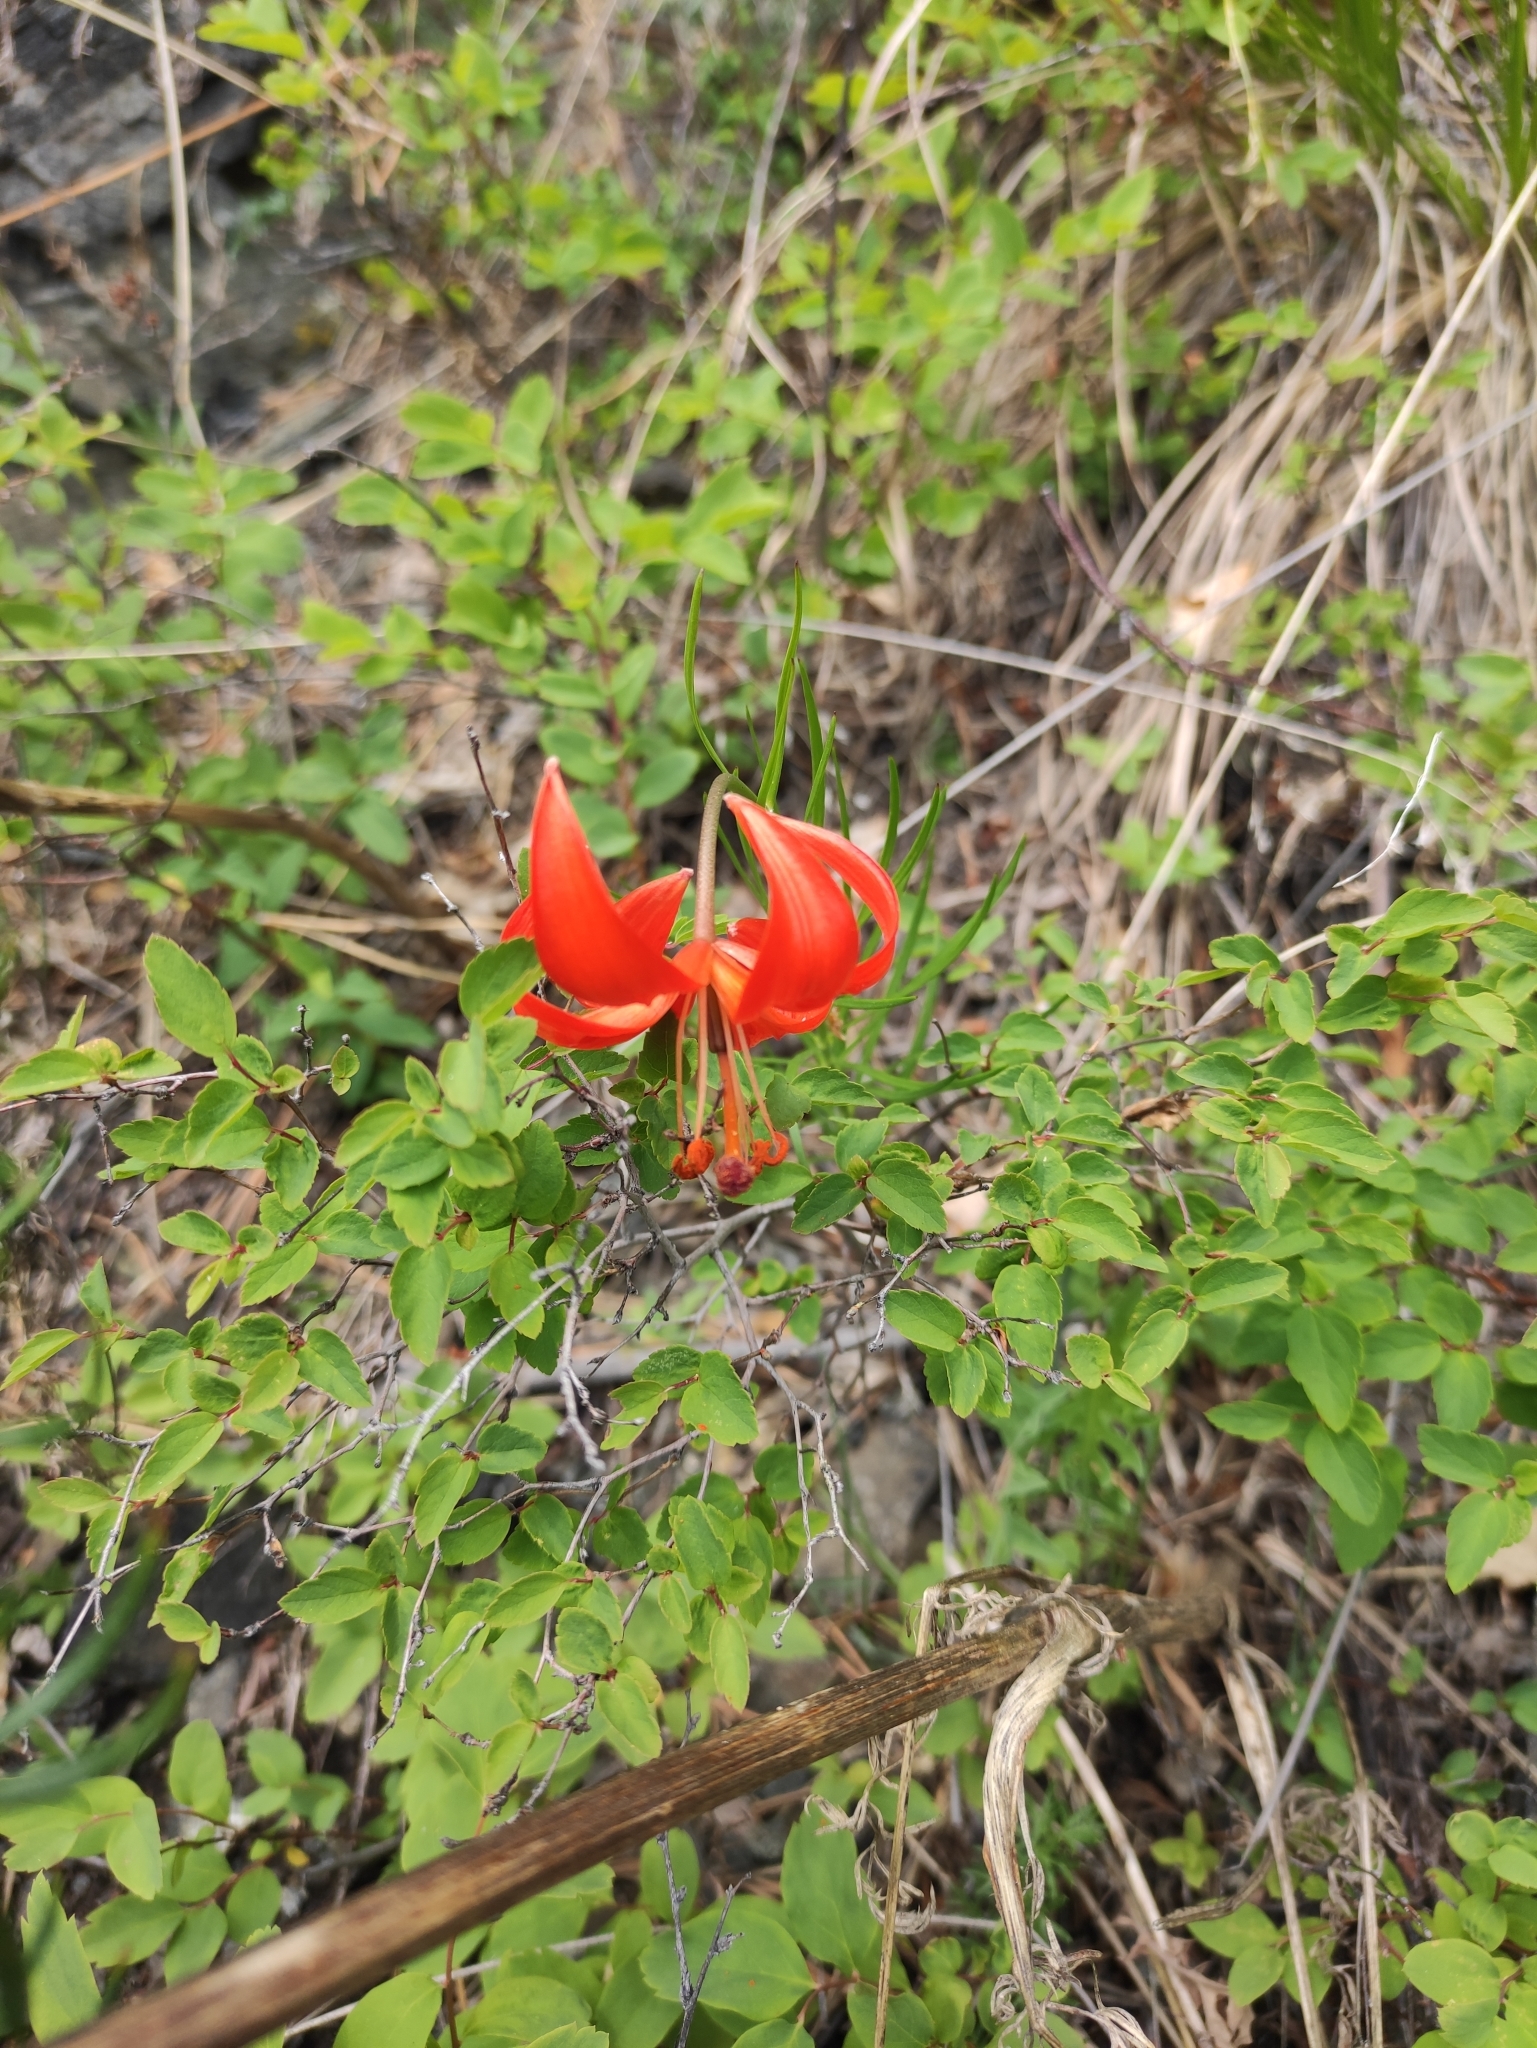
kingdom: Plantae
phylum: Tracheophyta
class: Liliopsida
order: Liliales
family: Liliaceae
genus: Lilium
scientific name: Lilium pumilum
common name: Coral lily
